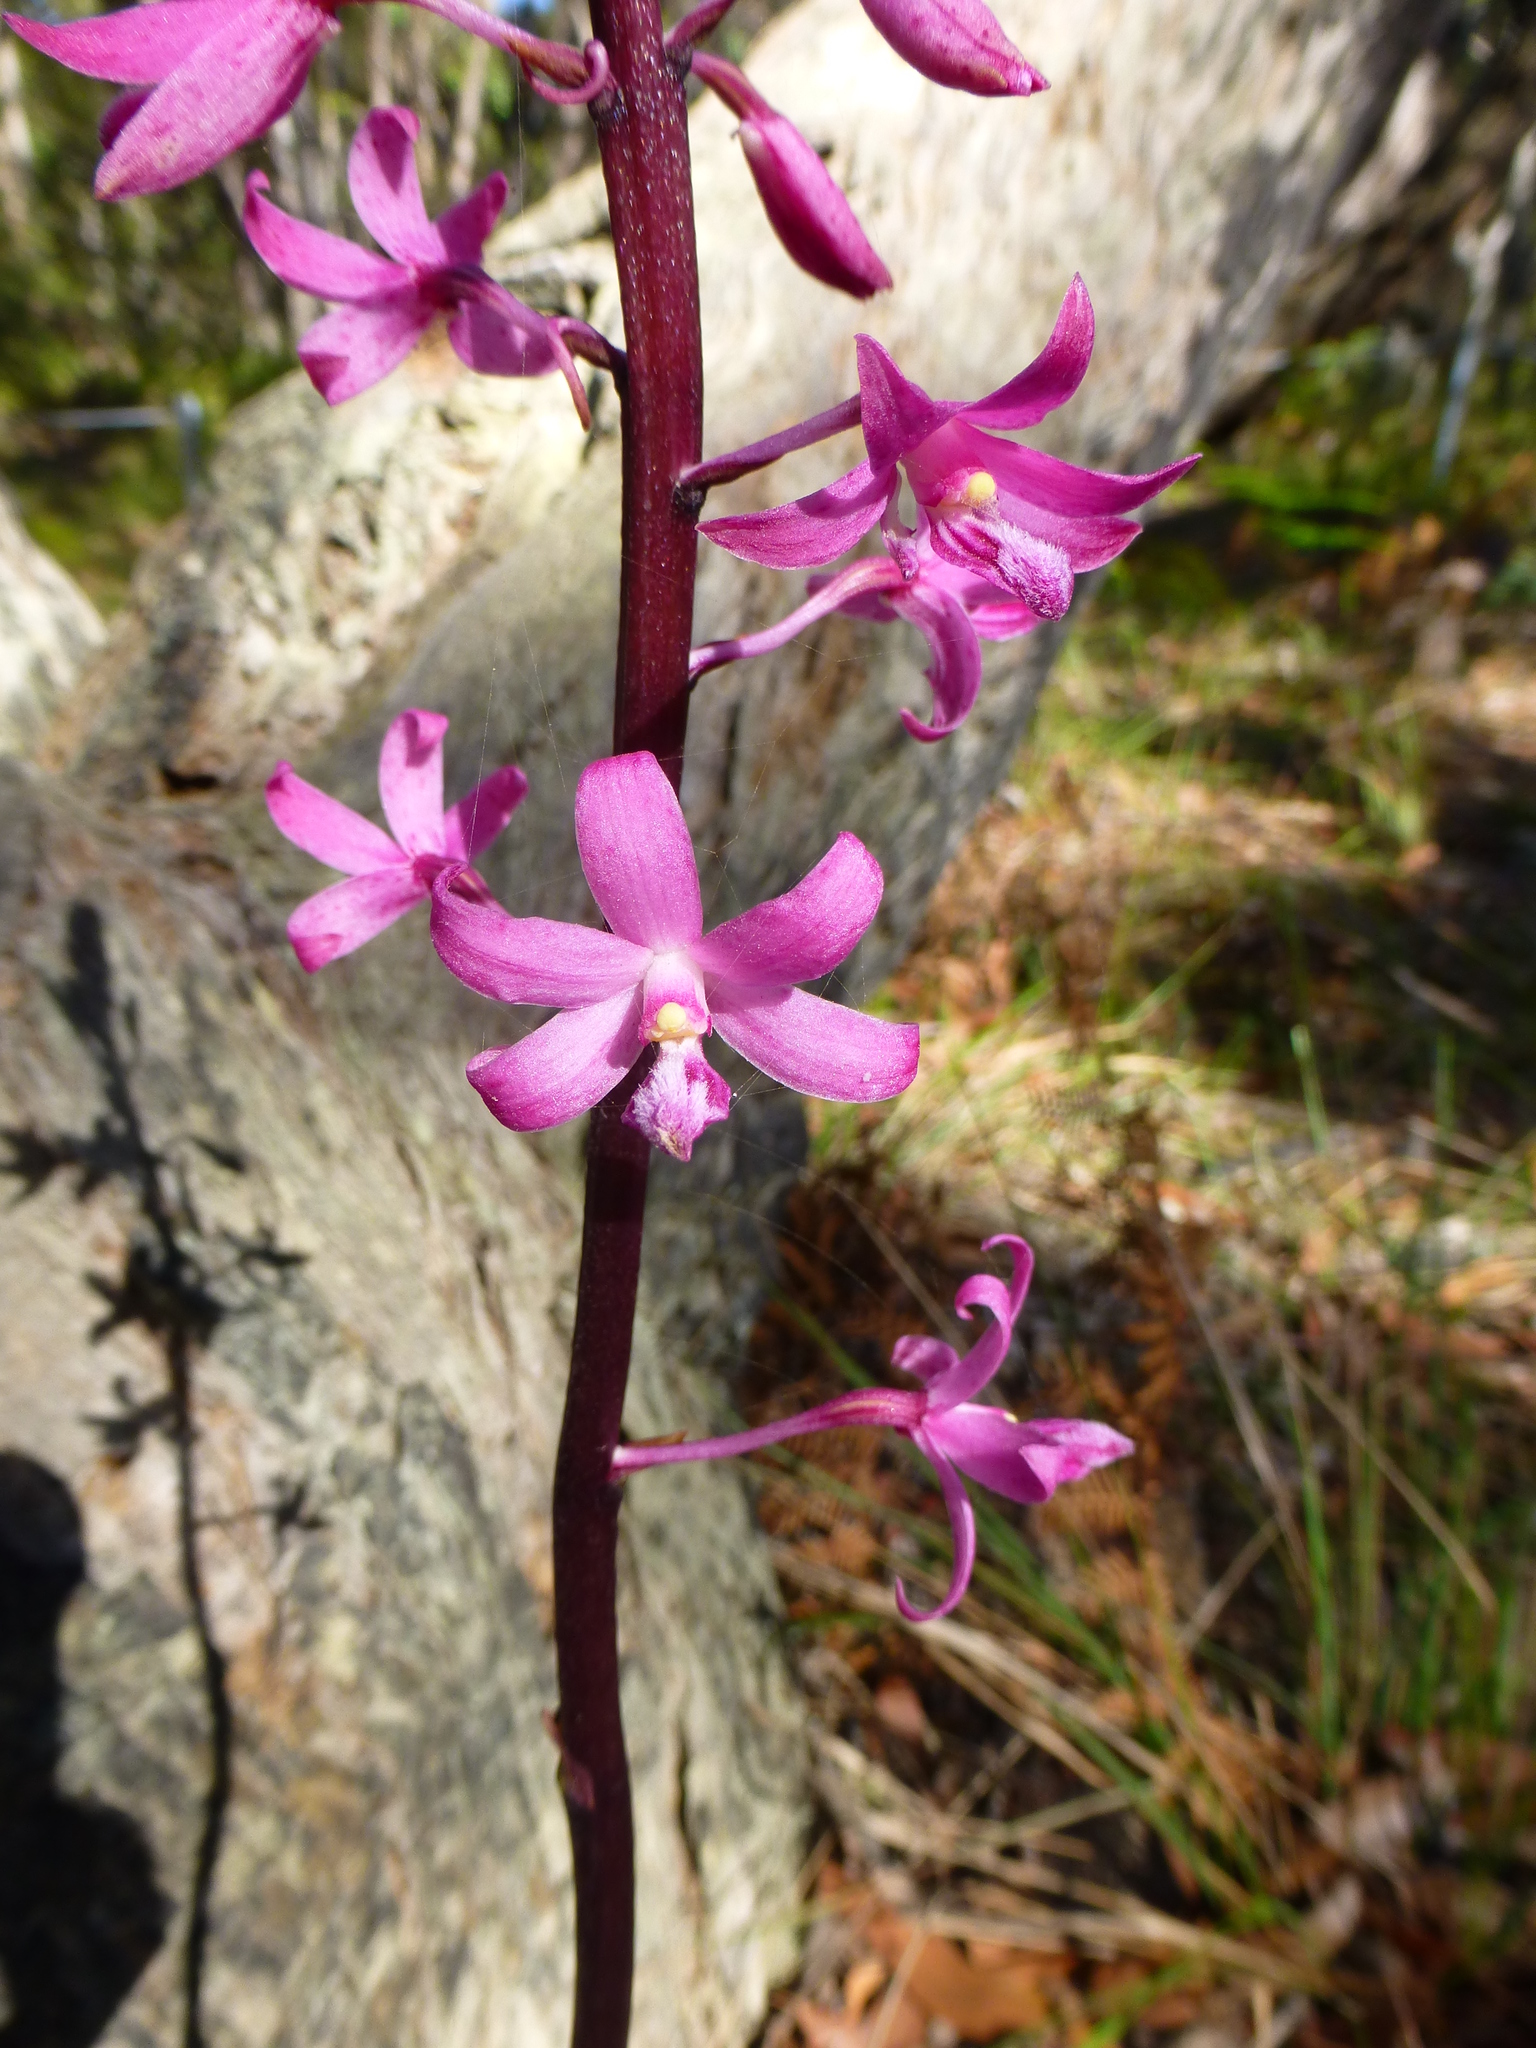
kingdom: Plantae
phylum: Tracheophyta
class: Liliopsida
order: Asparagales
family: Orchidaceae
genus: Dipodium
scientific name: Dipodium roseum
